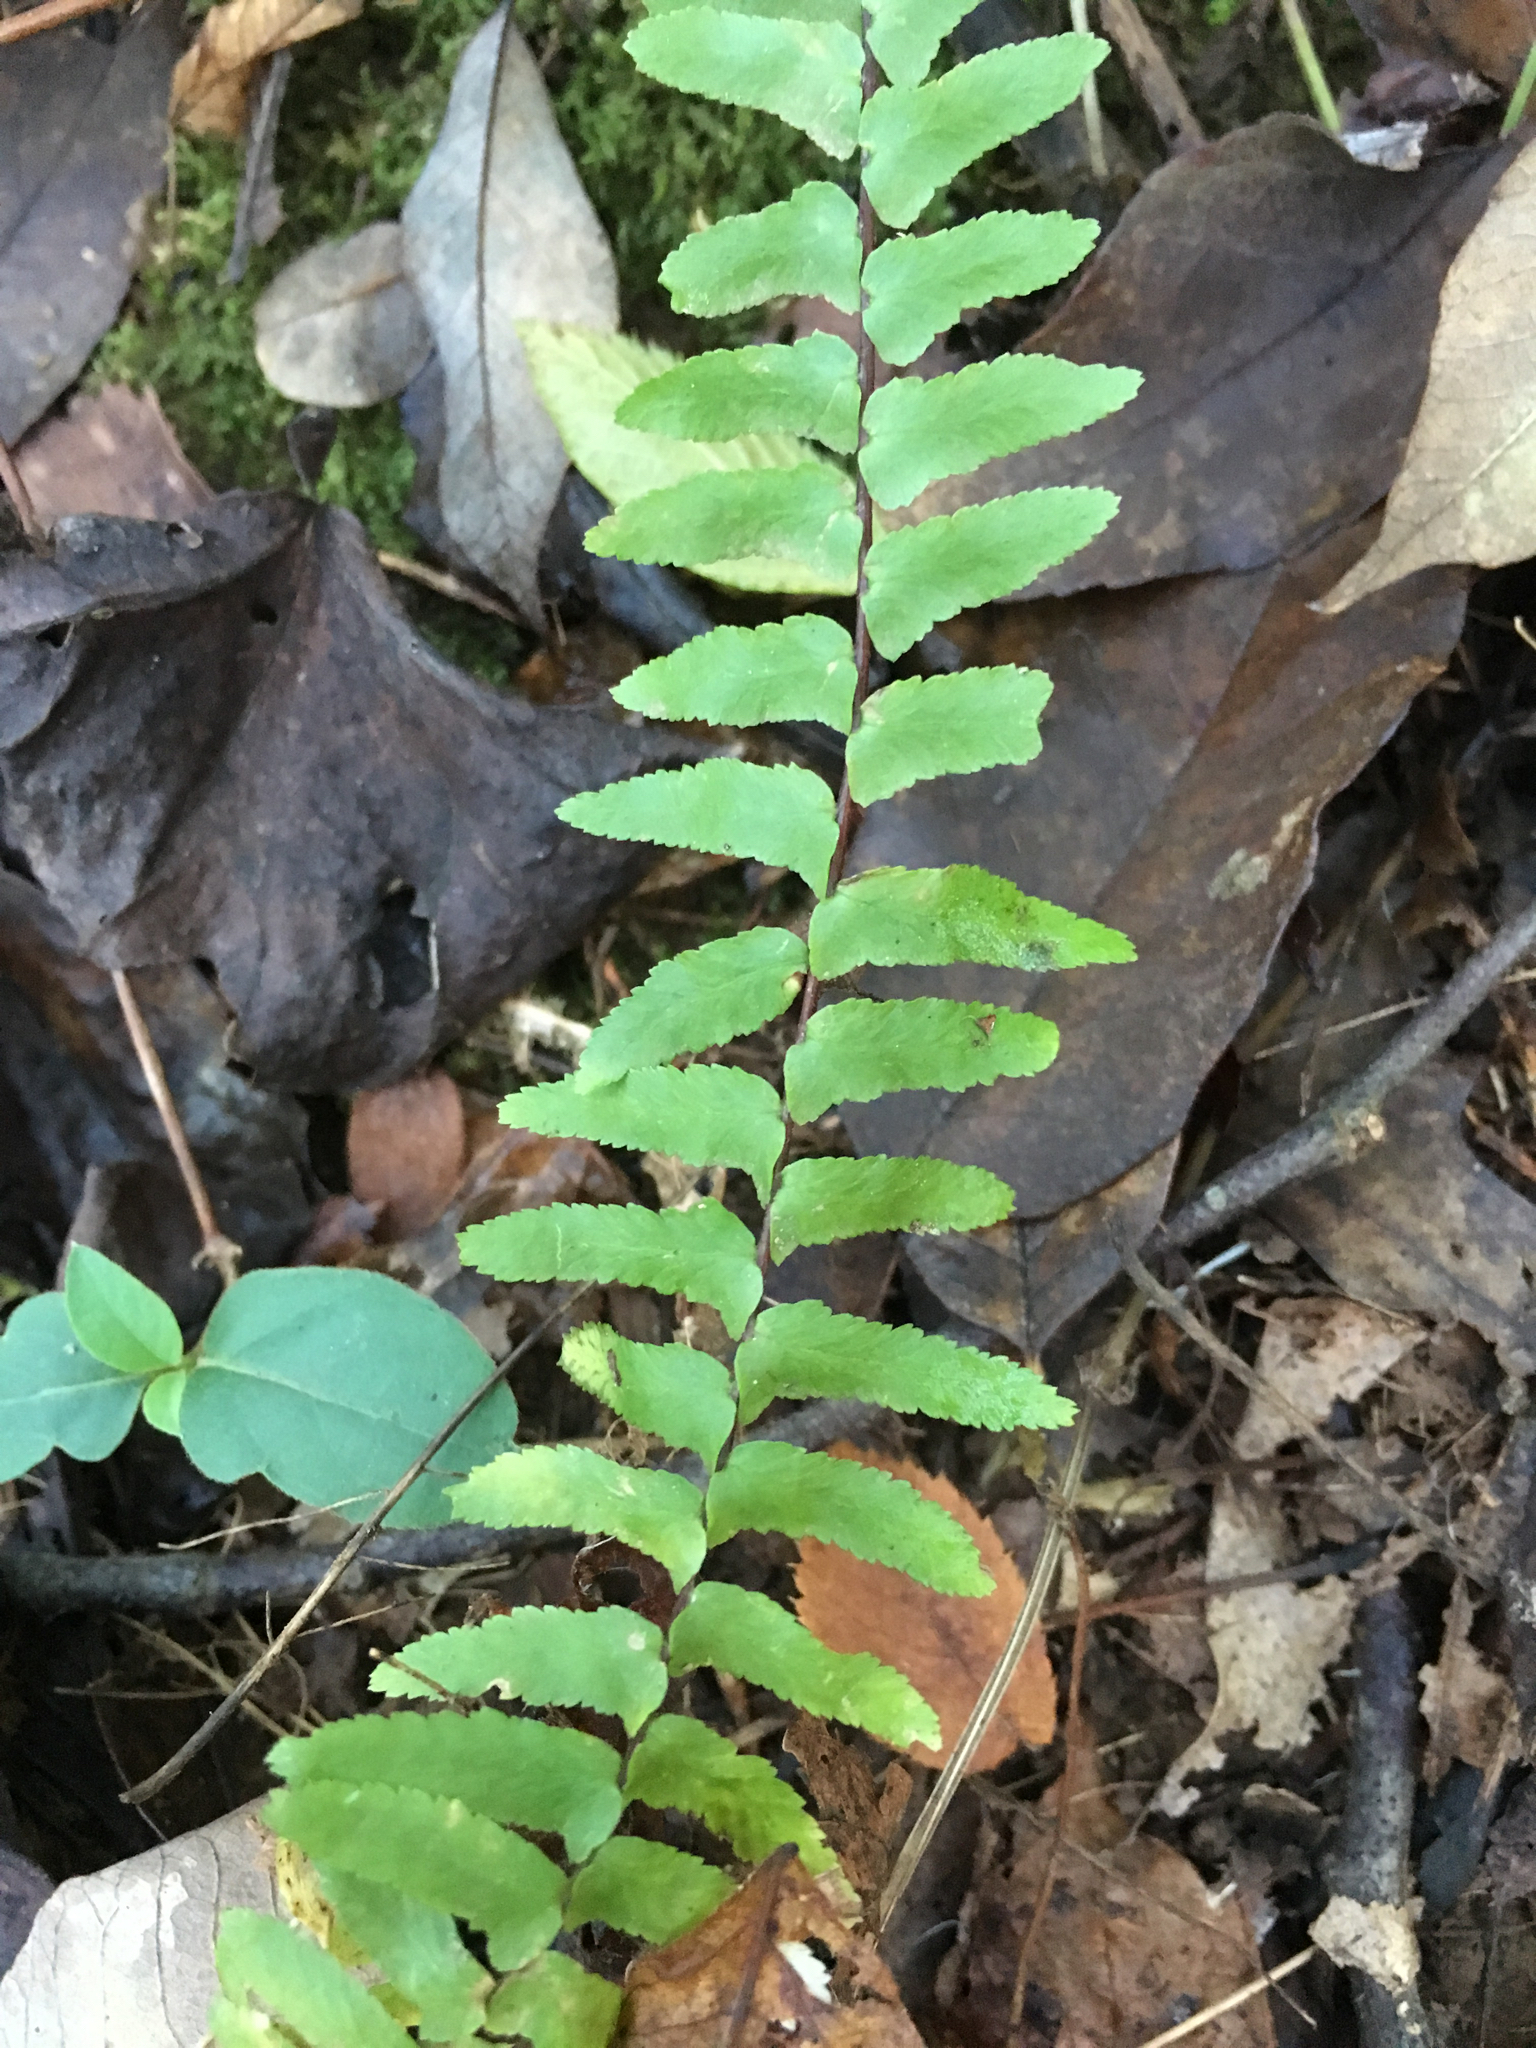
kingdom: Plantae
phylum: Tracheophyta
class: Polypodiopsida
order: Polypodiales
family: Aspleniaceae
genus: Asplenium
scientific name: Asplenium platyneuron
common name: Ebony spleenwort
